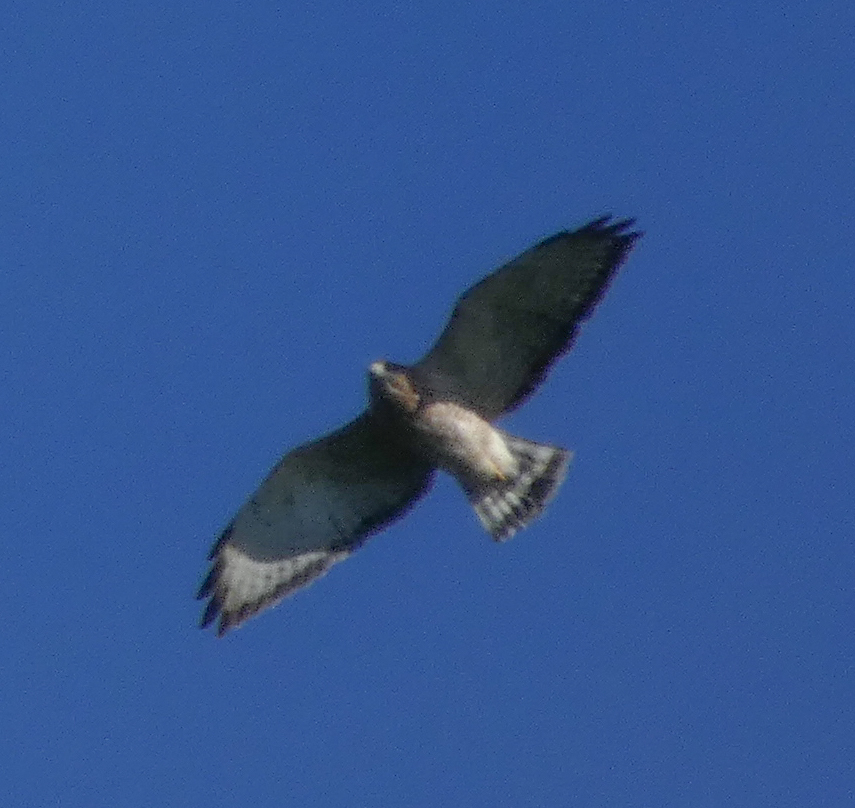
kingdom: Animalia
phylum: Chordata
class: Aves
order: Accipitriformes
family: Accipitridae
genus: Buteo
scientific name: Buteo platypterus
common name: Broad-winged hawk
